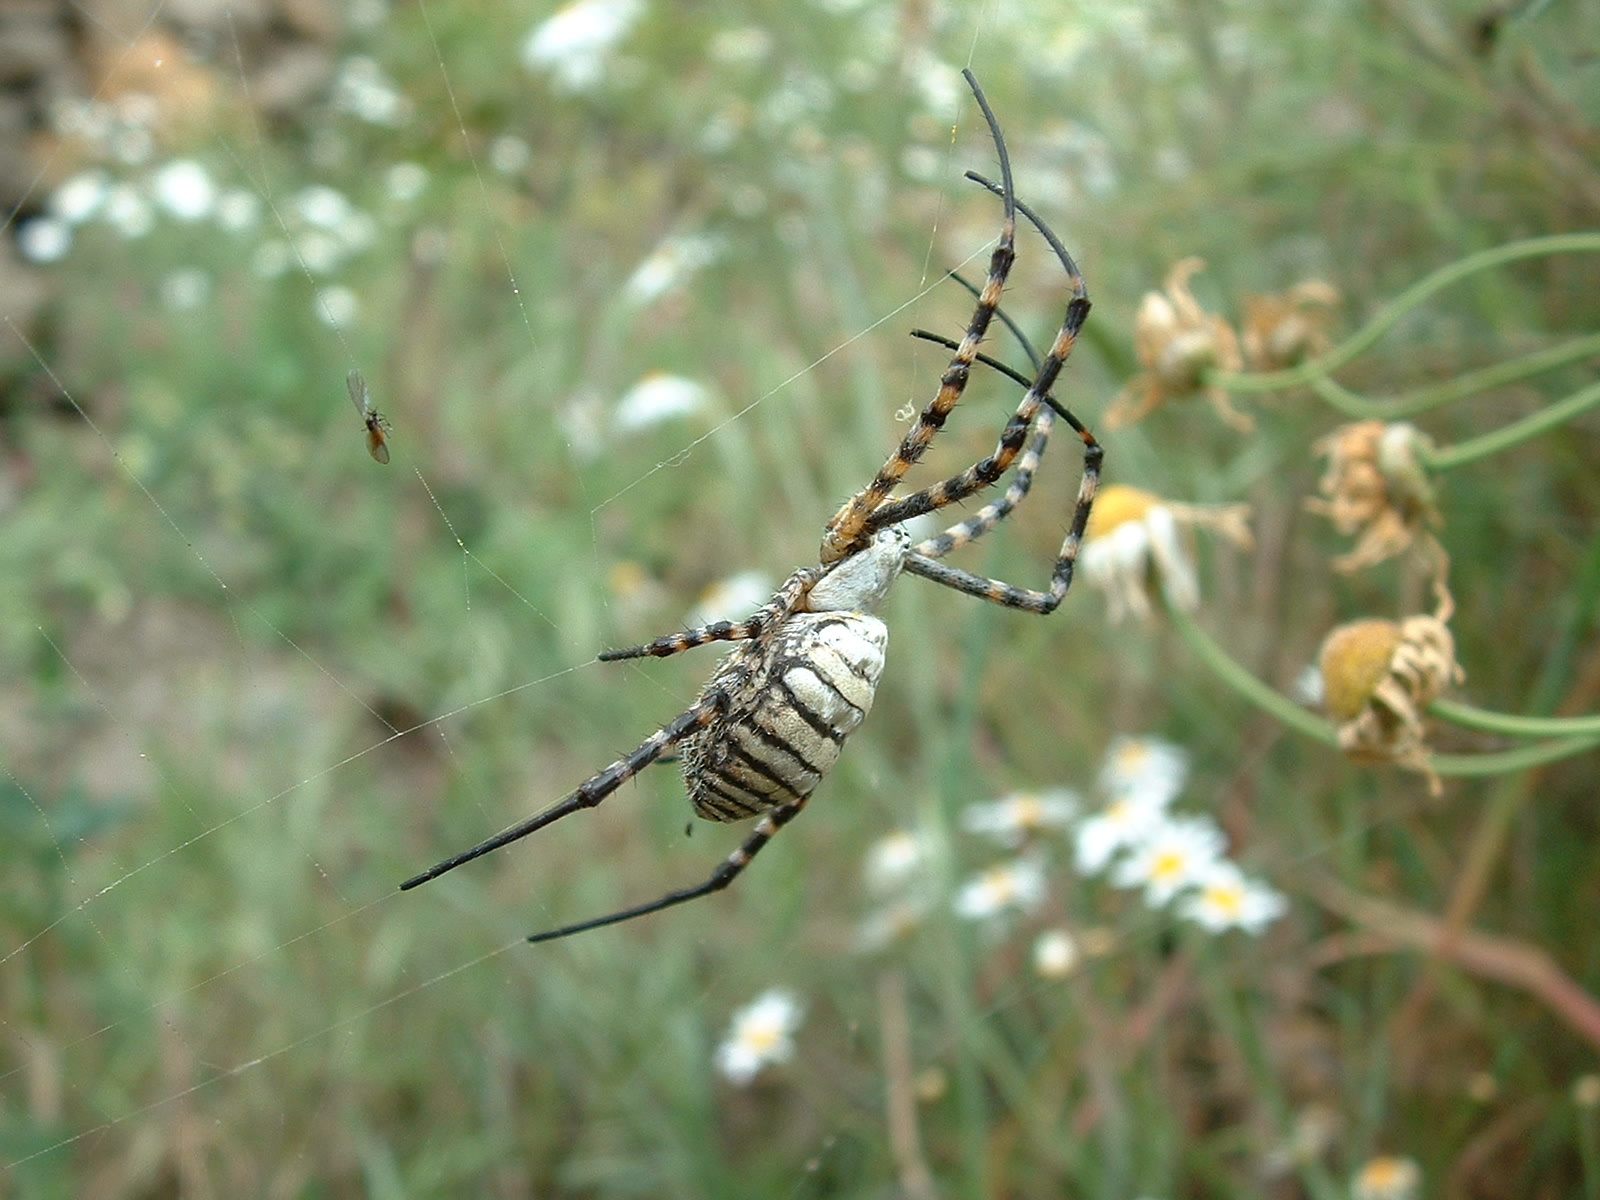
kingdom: Animalia
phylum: Arthropoda
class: Arachnida
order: Araneae
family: Araneidae
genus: Argiope
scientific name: Argiope trifasciata
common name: Banded garden spider
